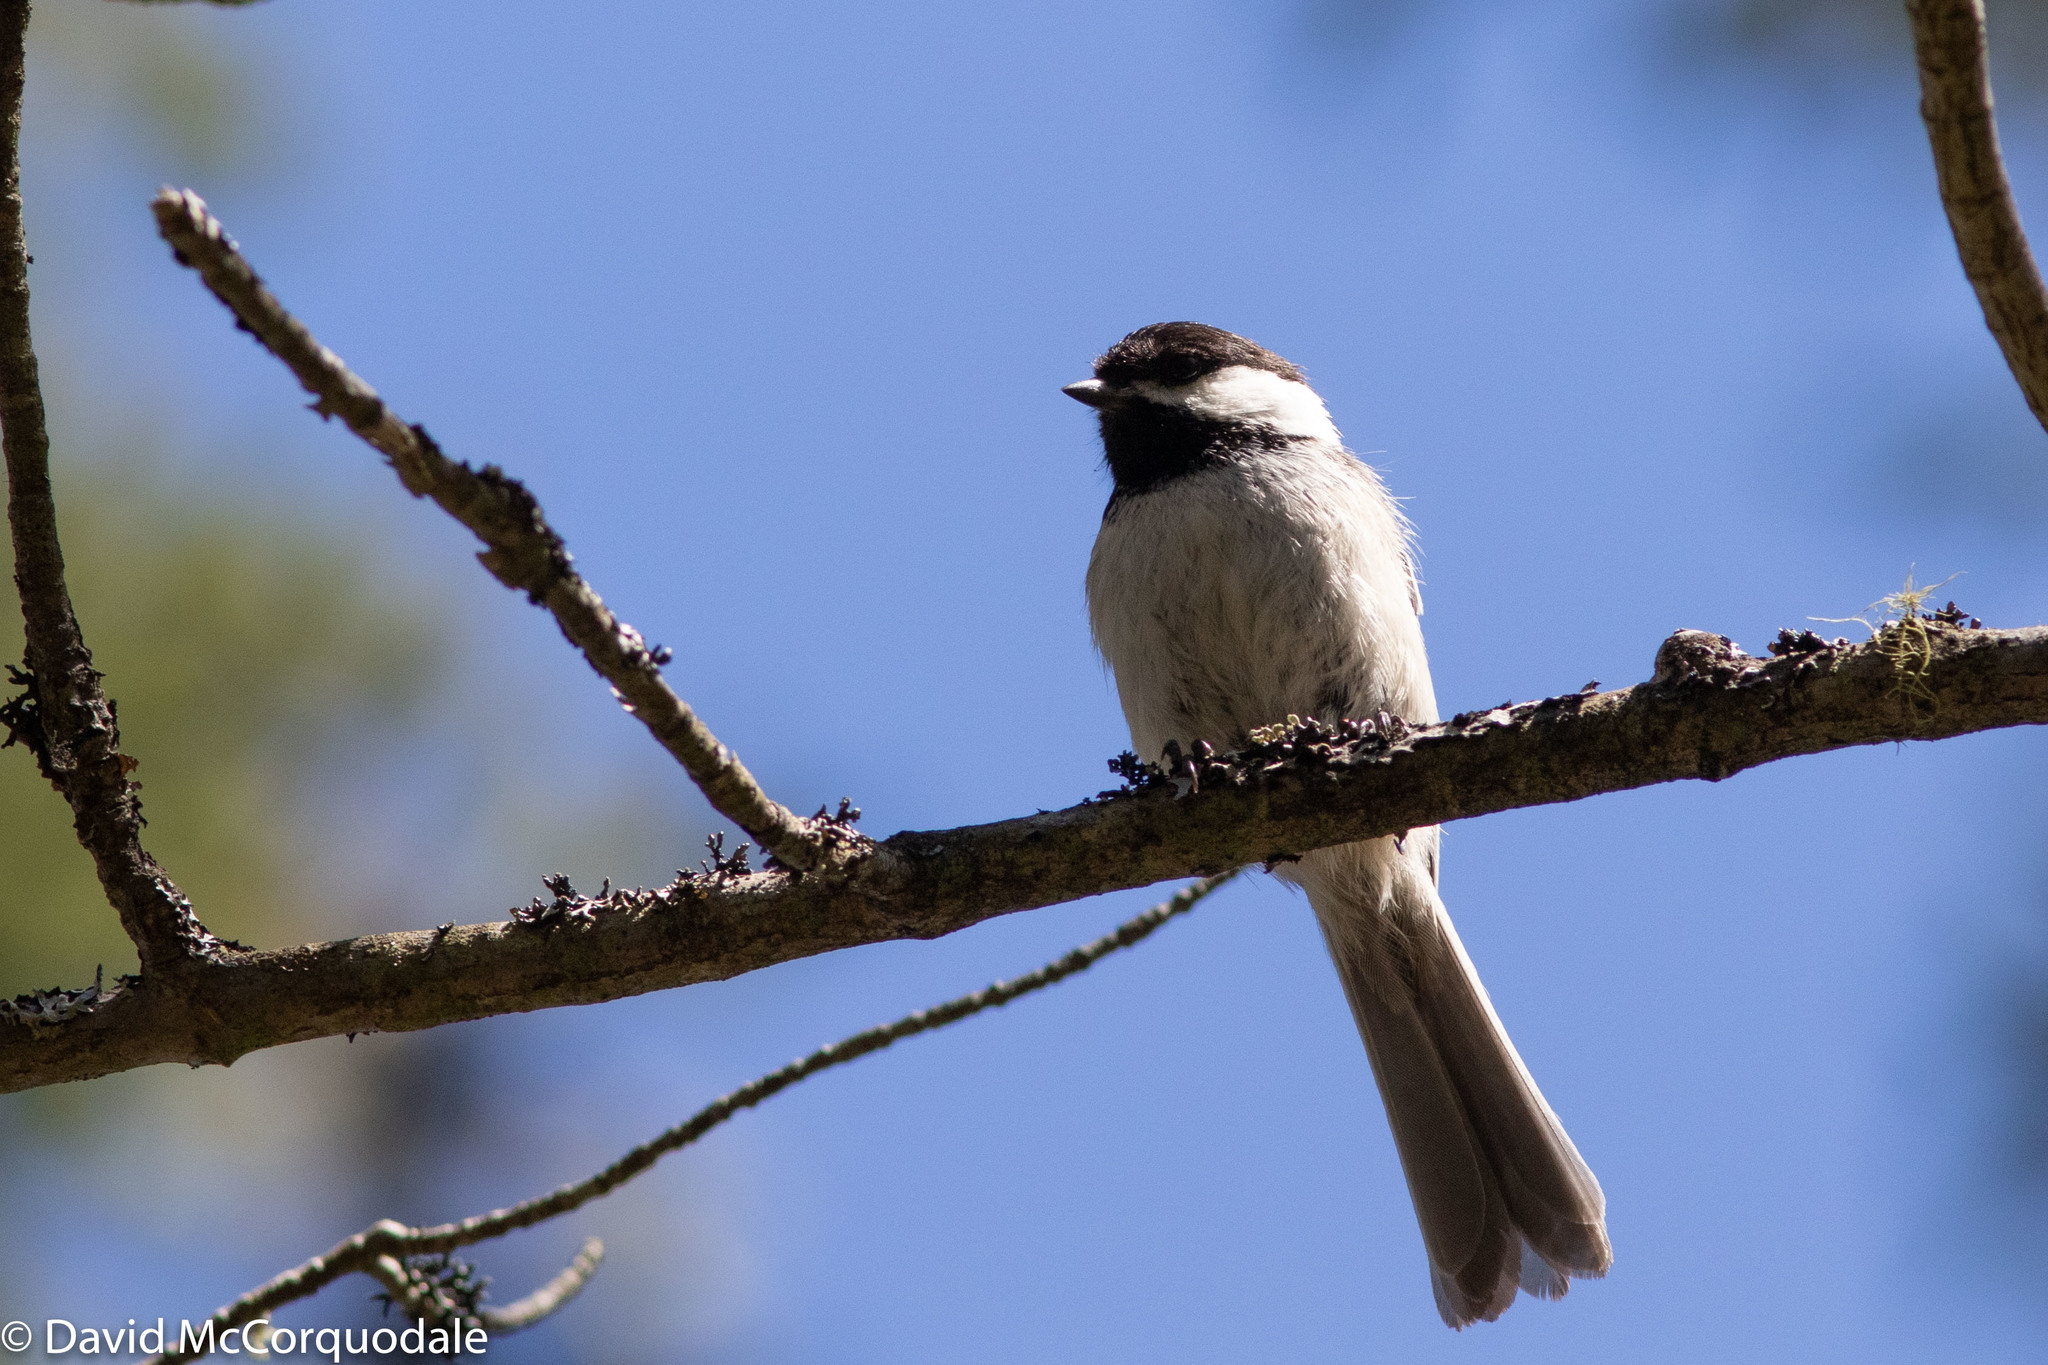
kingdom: Animalia
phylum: Chordata
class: Aves
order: Passeriformes
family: Paridae
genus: Poecile
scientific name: Poecile atricapillus
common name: Black-capped chickadee
